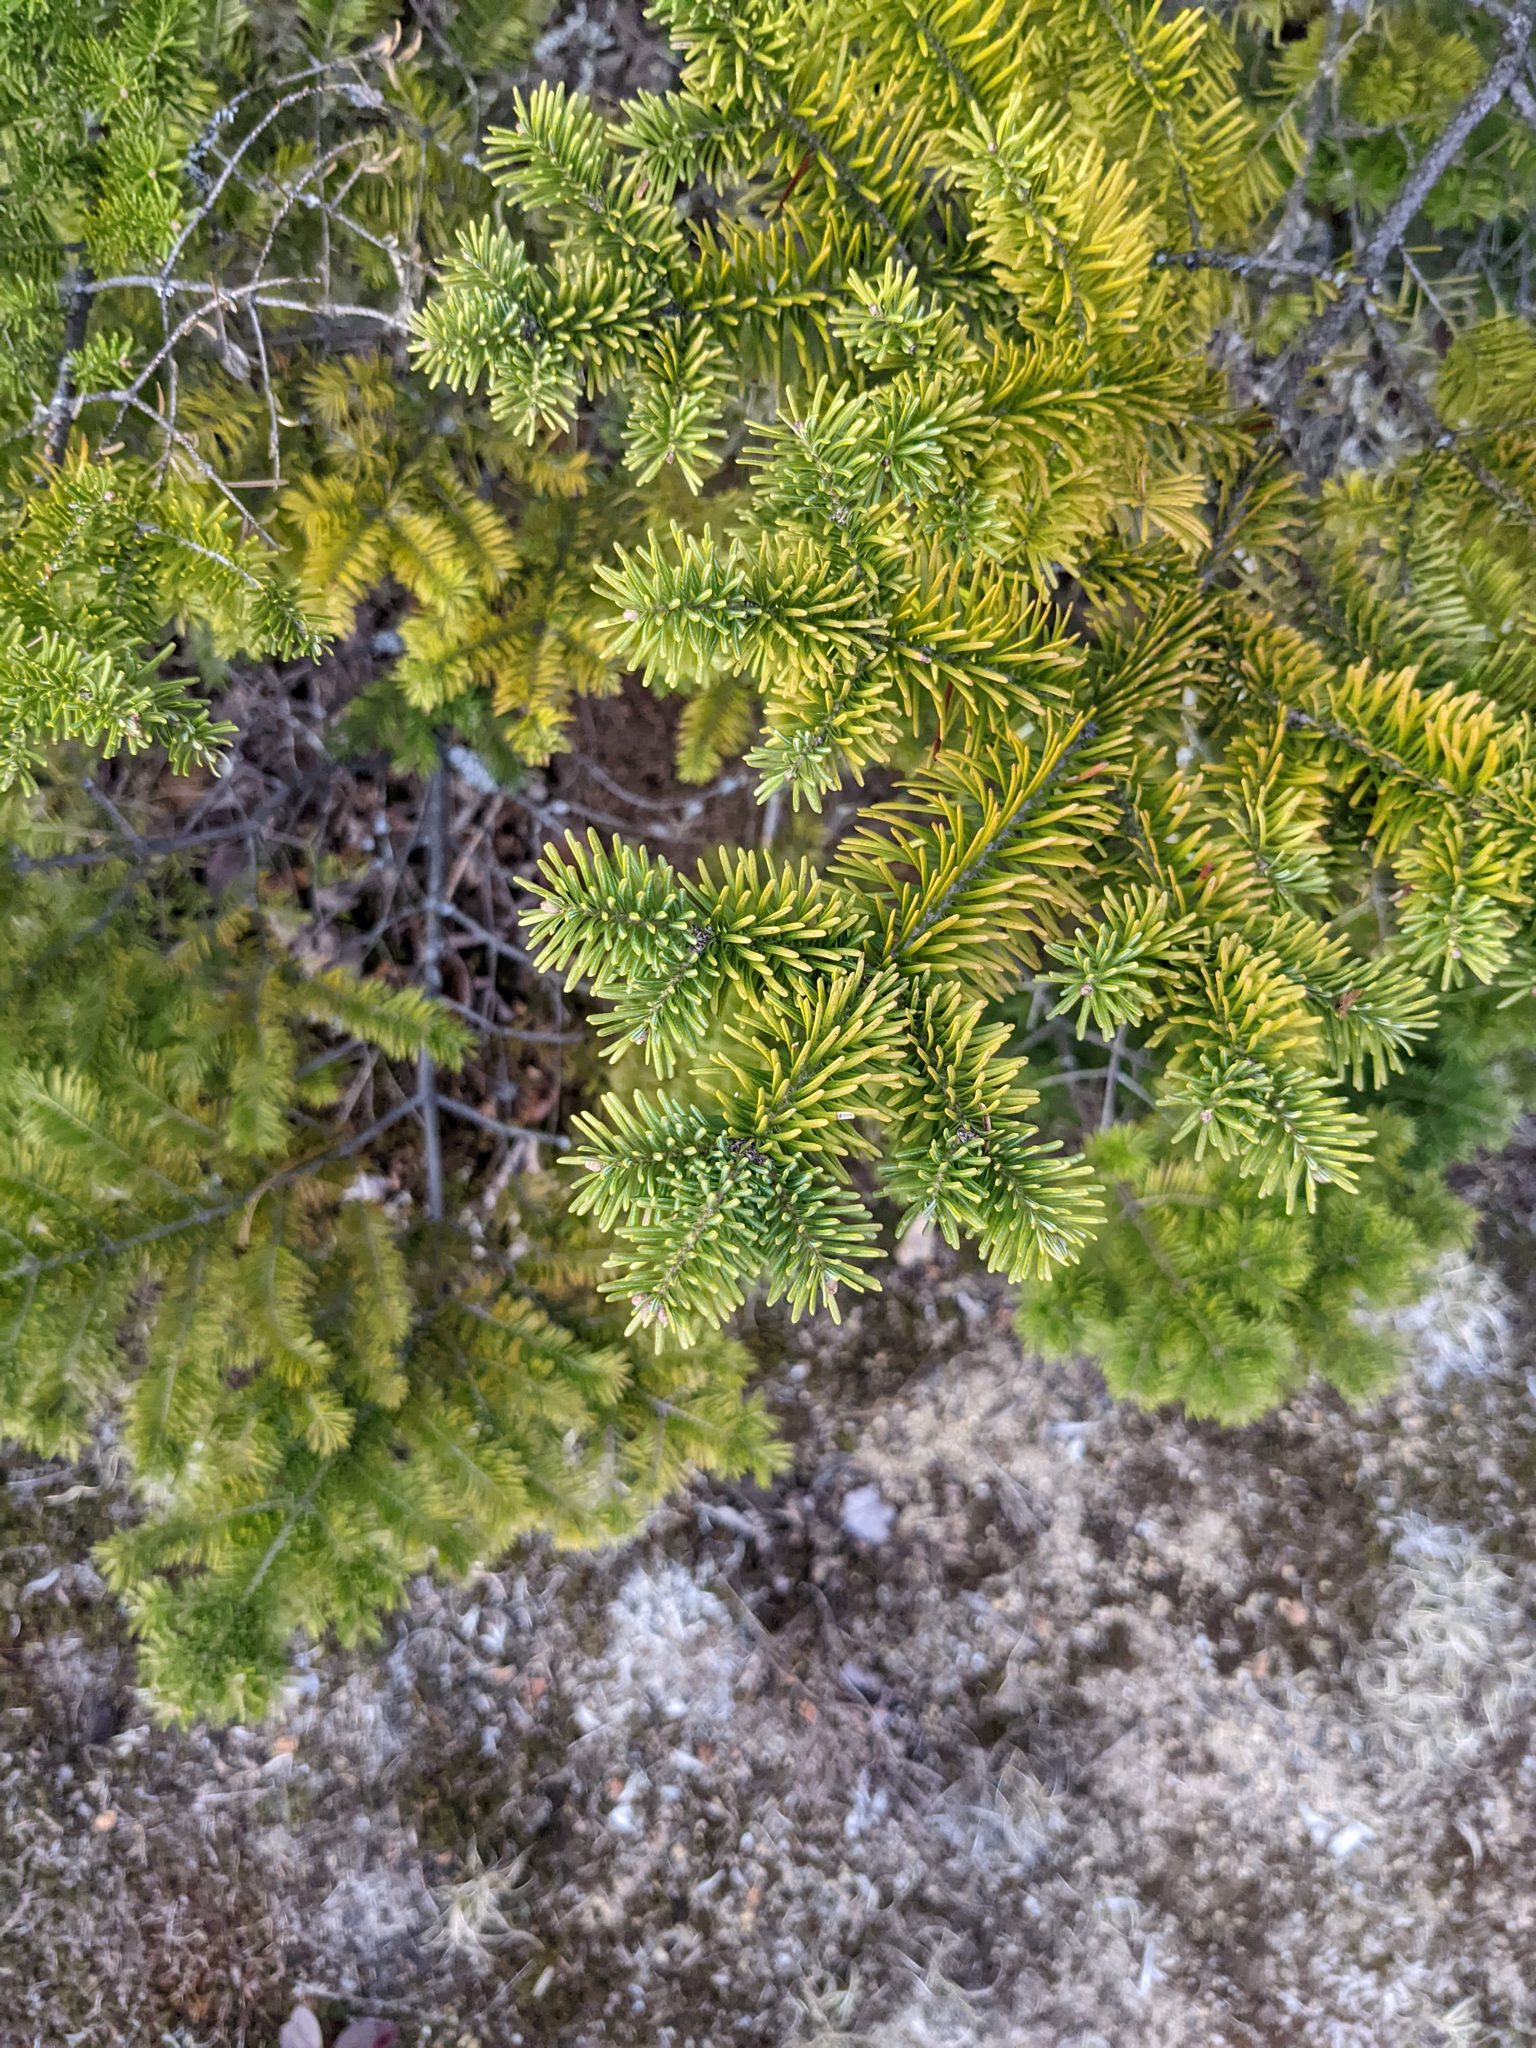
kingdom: Plantae
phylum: Tracheophyta
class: Pinopsida
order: Pinales
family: Pinaceae
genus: Abies
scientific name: Abies balsamea
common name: Balsam fir
